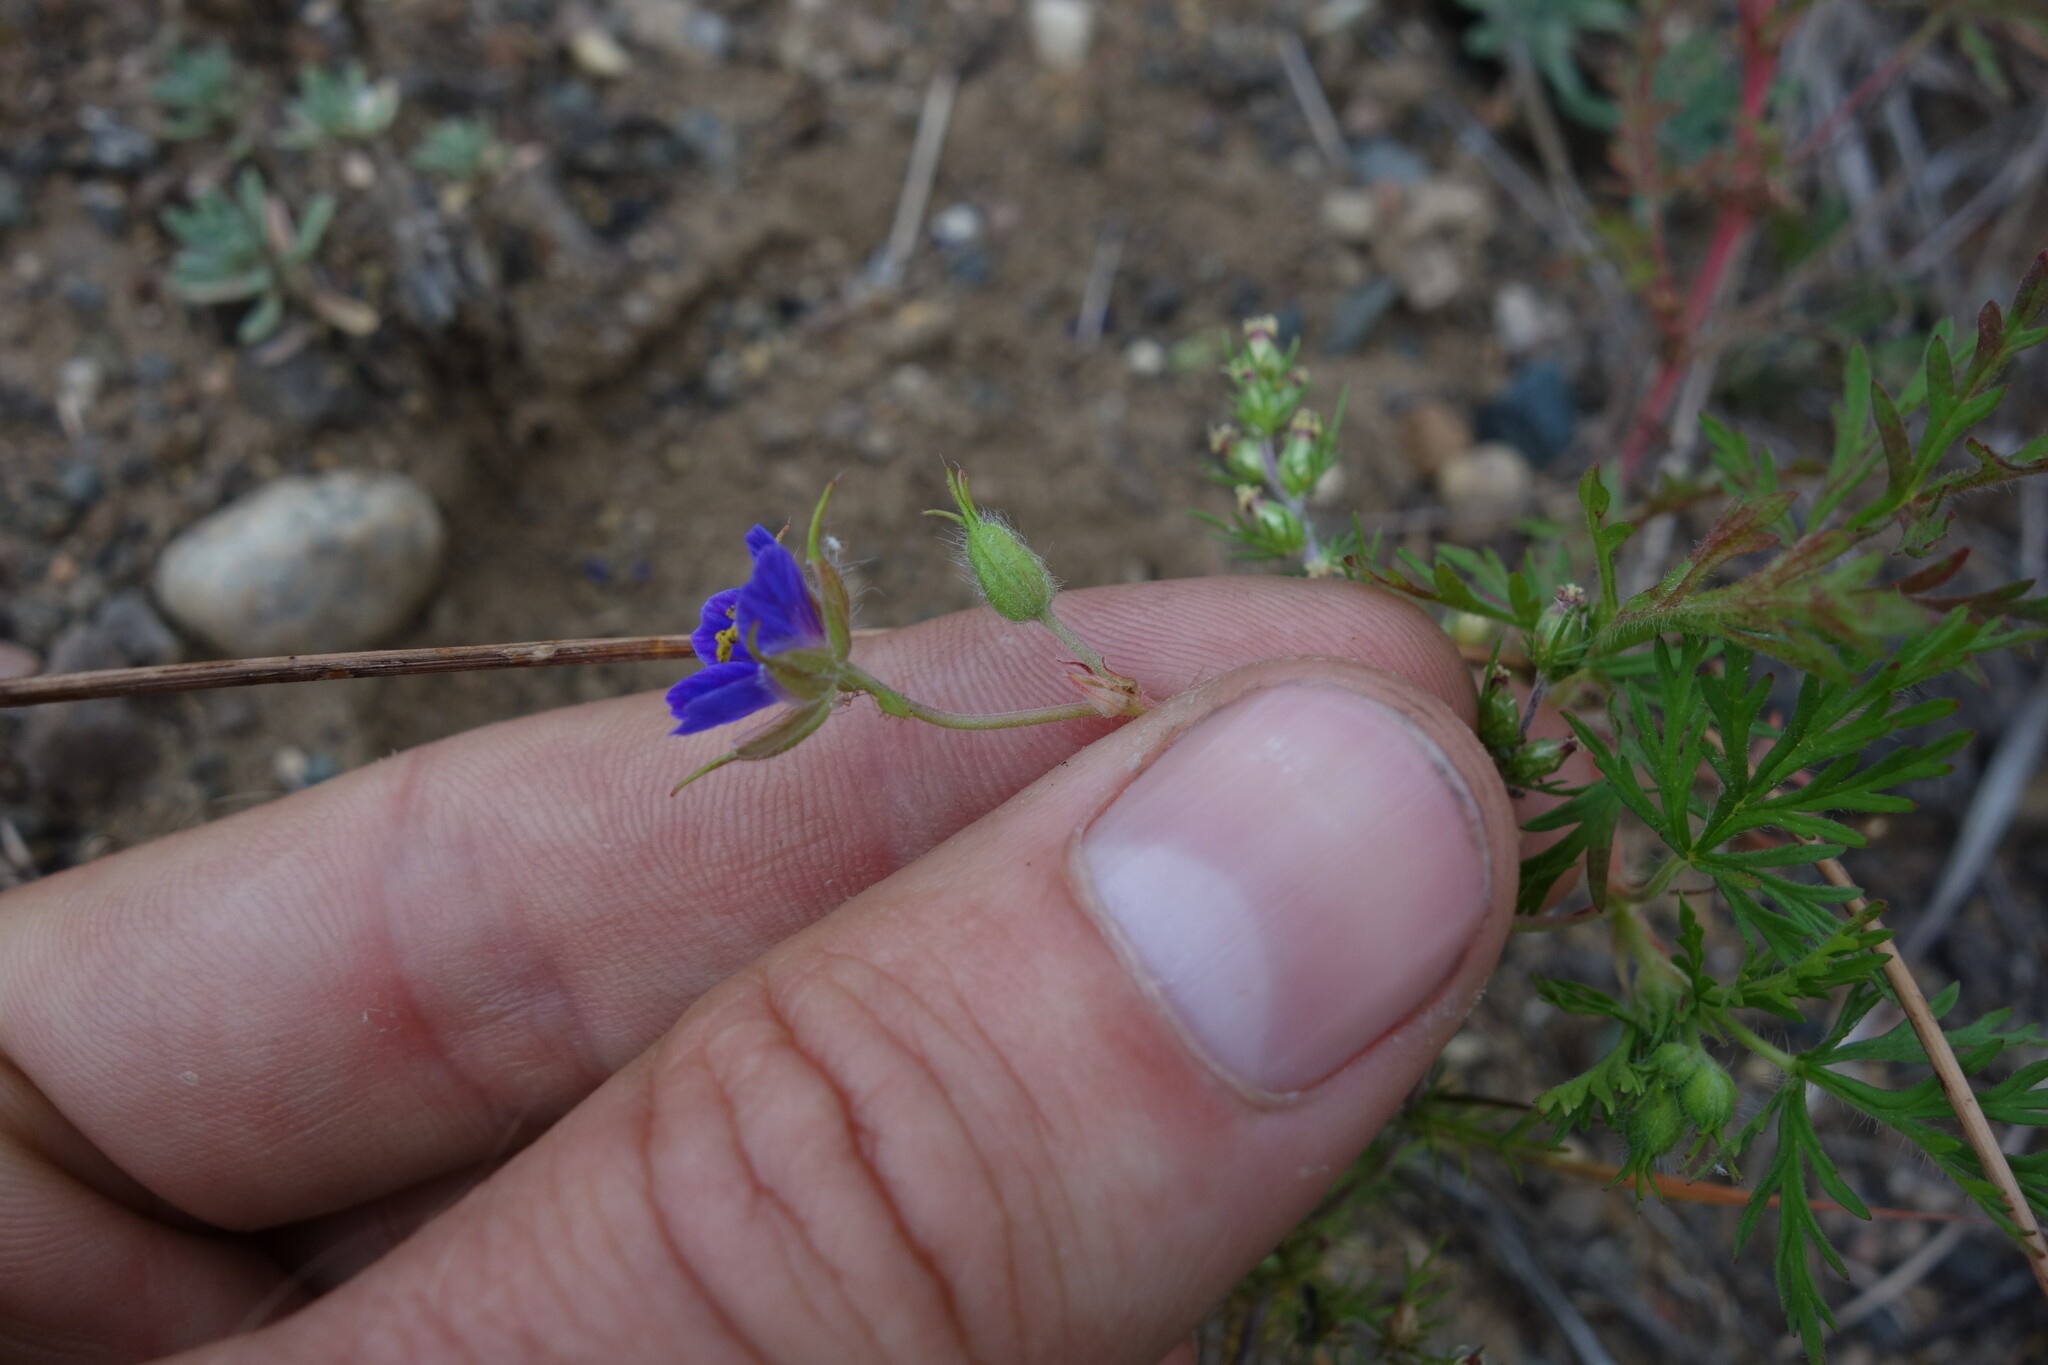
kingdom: Plantae
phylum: Tracheophyta
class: Magnoliopsida
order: Geraniales
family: Geraniaceae
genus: Erodium
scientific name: Erodium stephanianum
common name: Stephen's stork's bill
